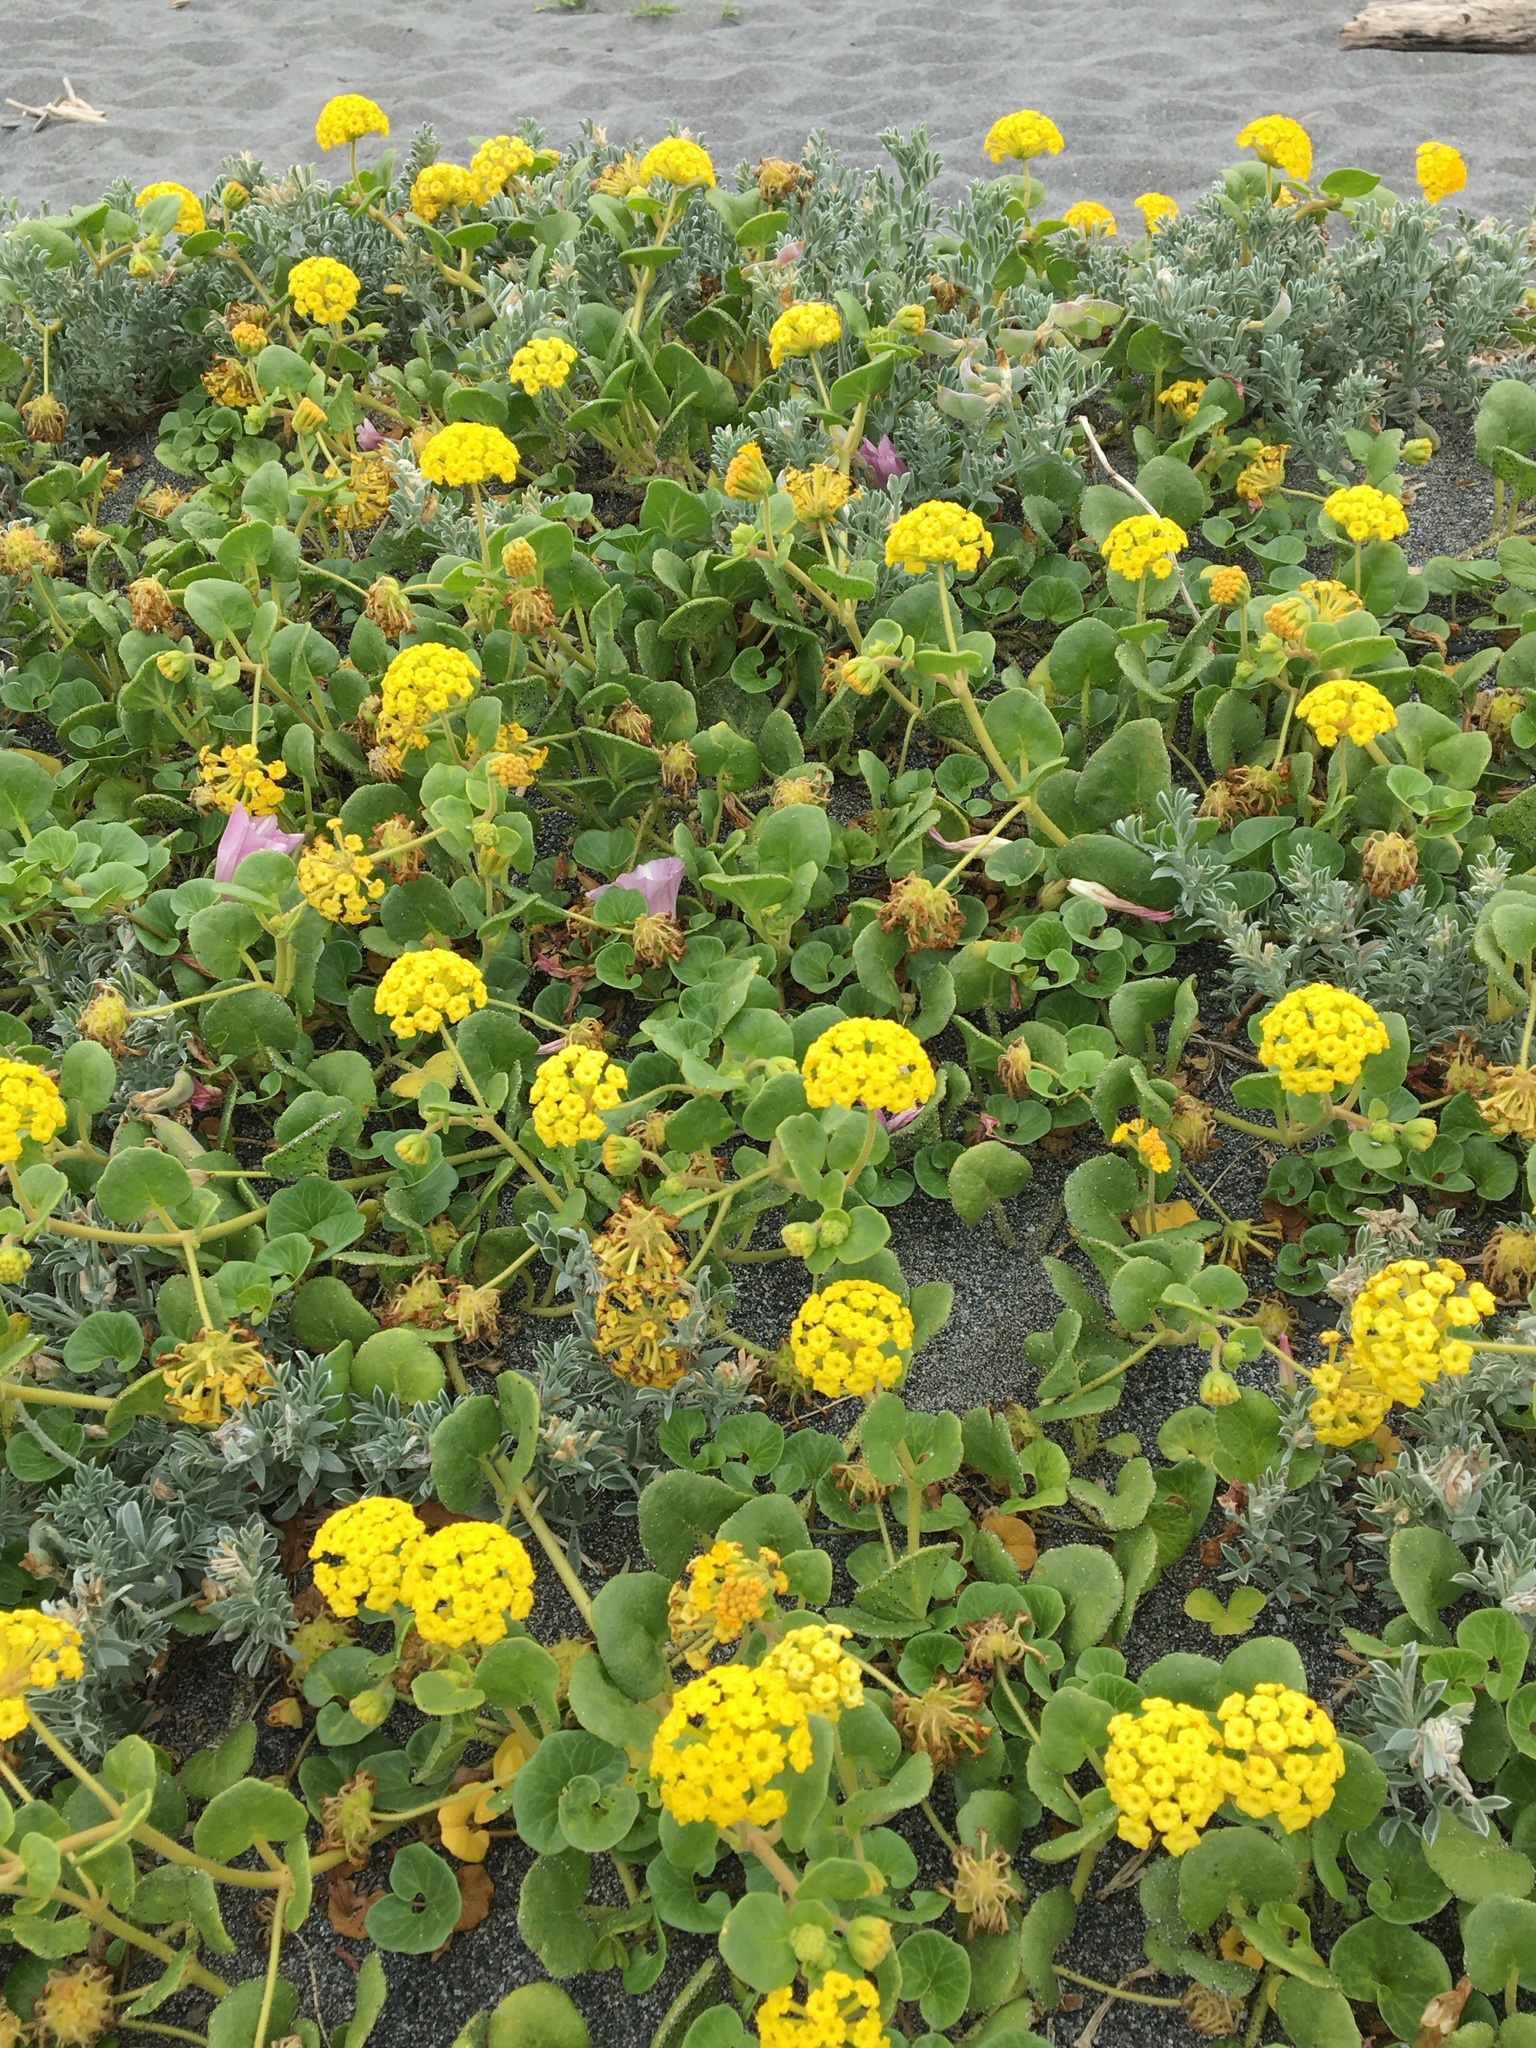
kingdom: Plantae
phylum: Tracheophyta
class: Magnoliopsida
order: Caryophyllales
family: Nyctaginaceae
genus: Abronia
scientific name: Abronia latifolia
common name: Yellow sand-verbena
